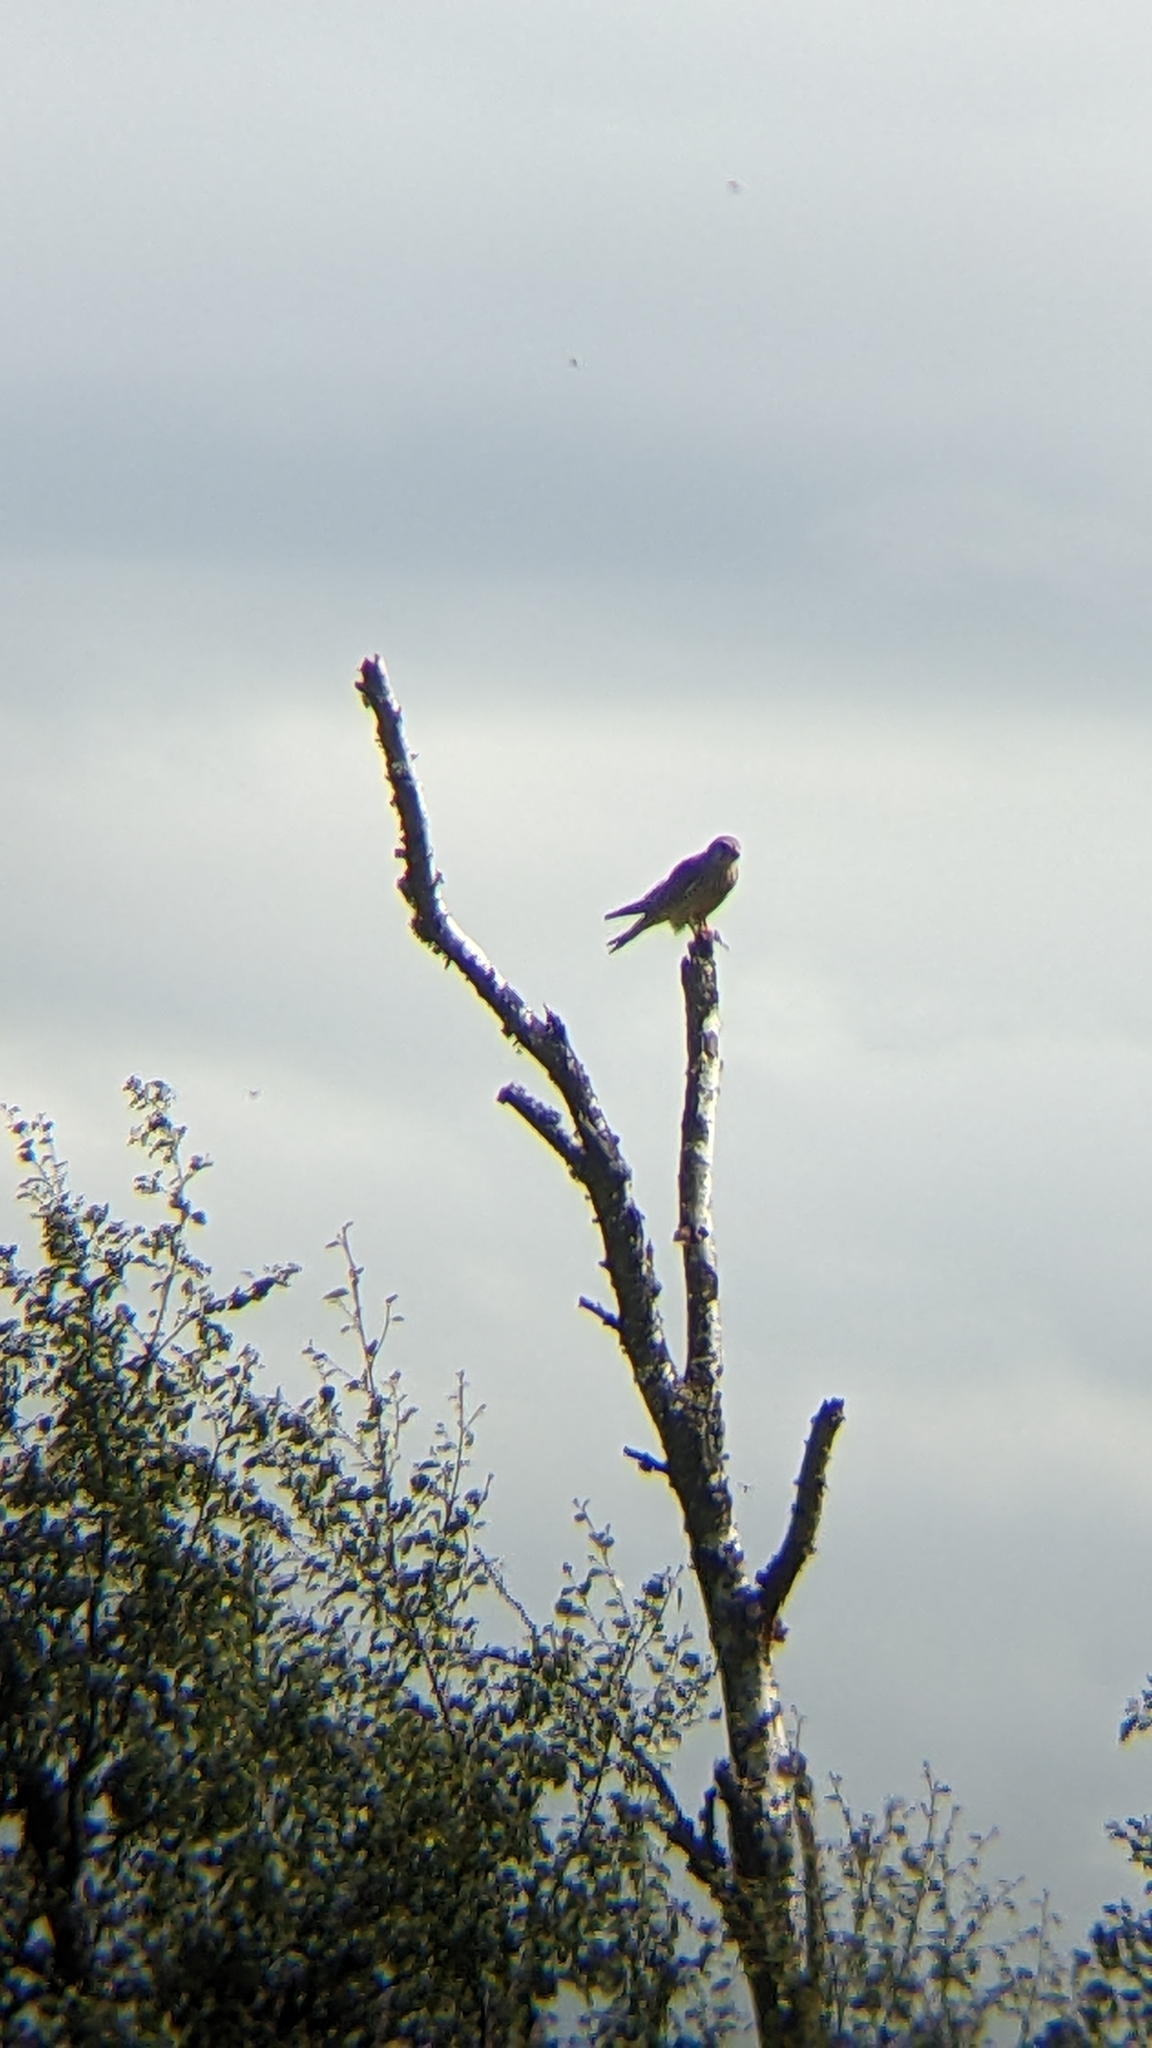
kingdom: Animalia
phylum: Chordata
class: Aves
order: Falconiformes
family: Falconidae
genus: Falco
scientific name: Falco tinnunculus
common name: Common kestrel
